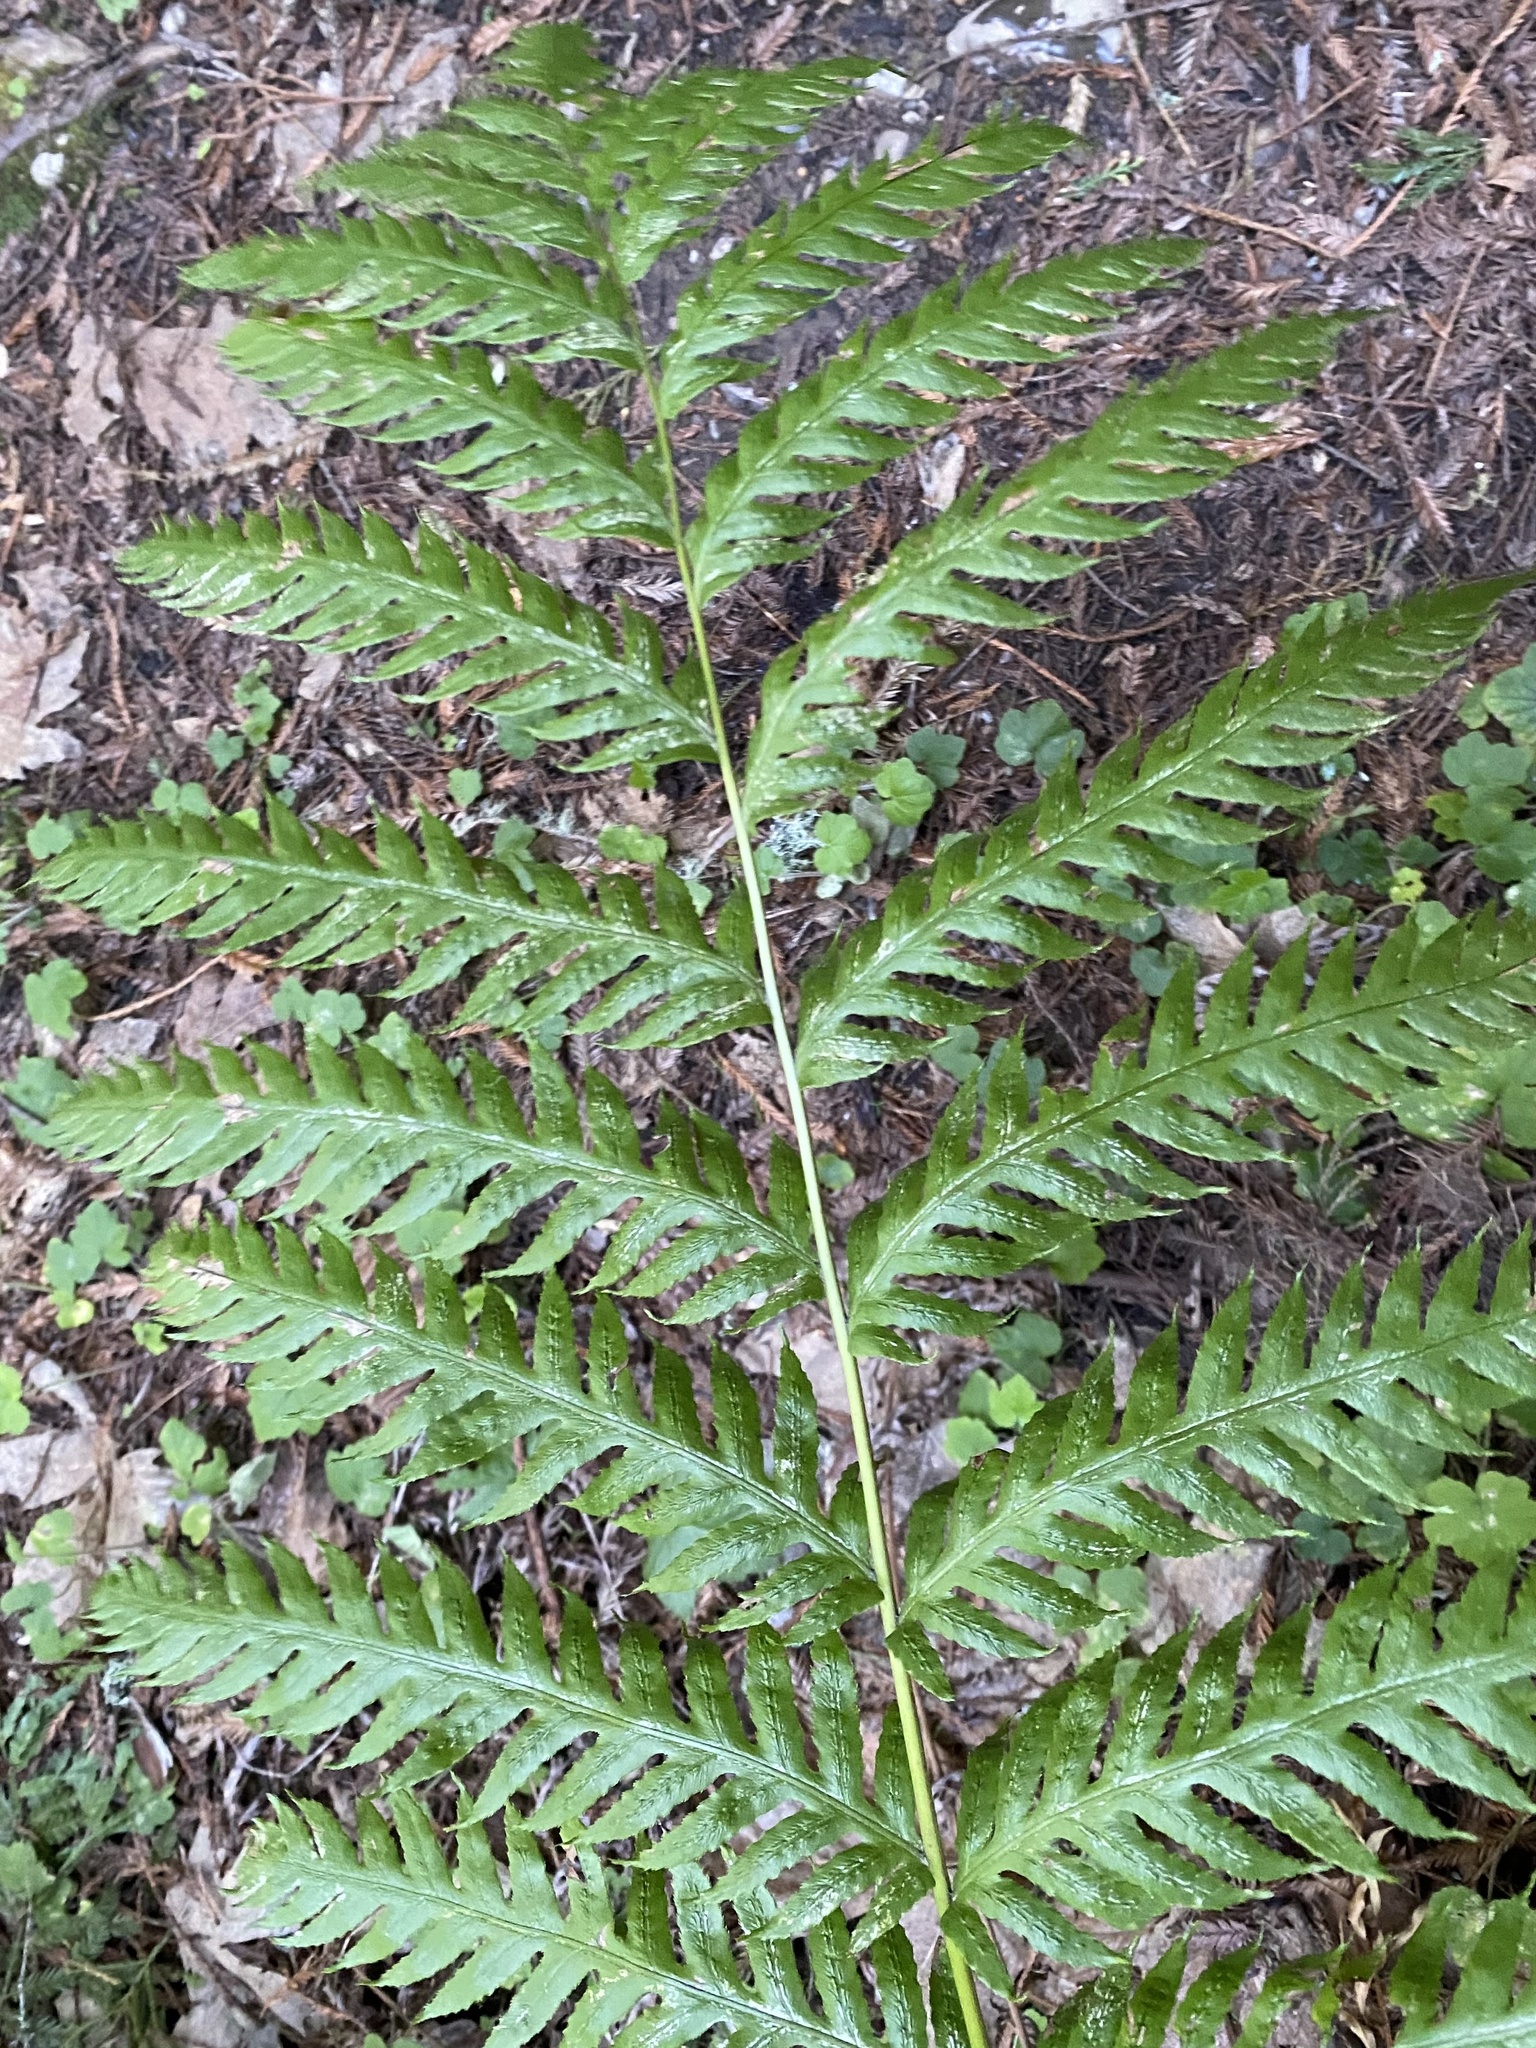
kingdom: Plantae
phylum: Tracheophyta
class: Polypodiopsida
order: Polypodiales
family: Blechnaceae
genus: Woodwardia
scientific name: Woodwardia fimbriata
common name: Giant chain fern
